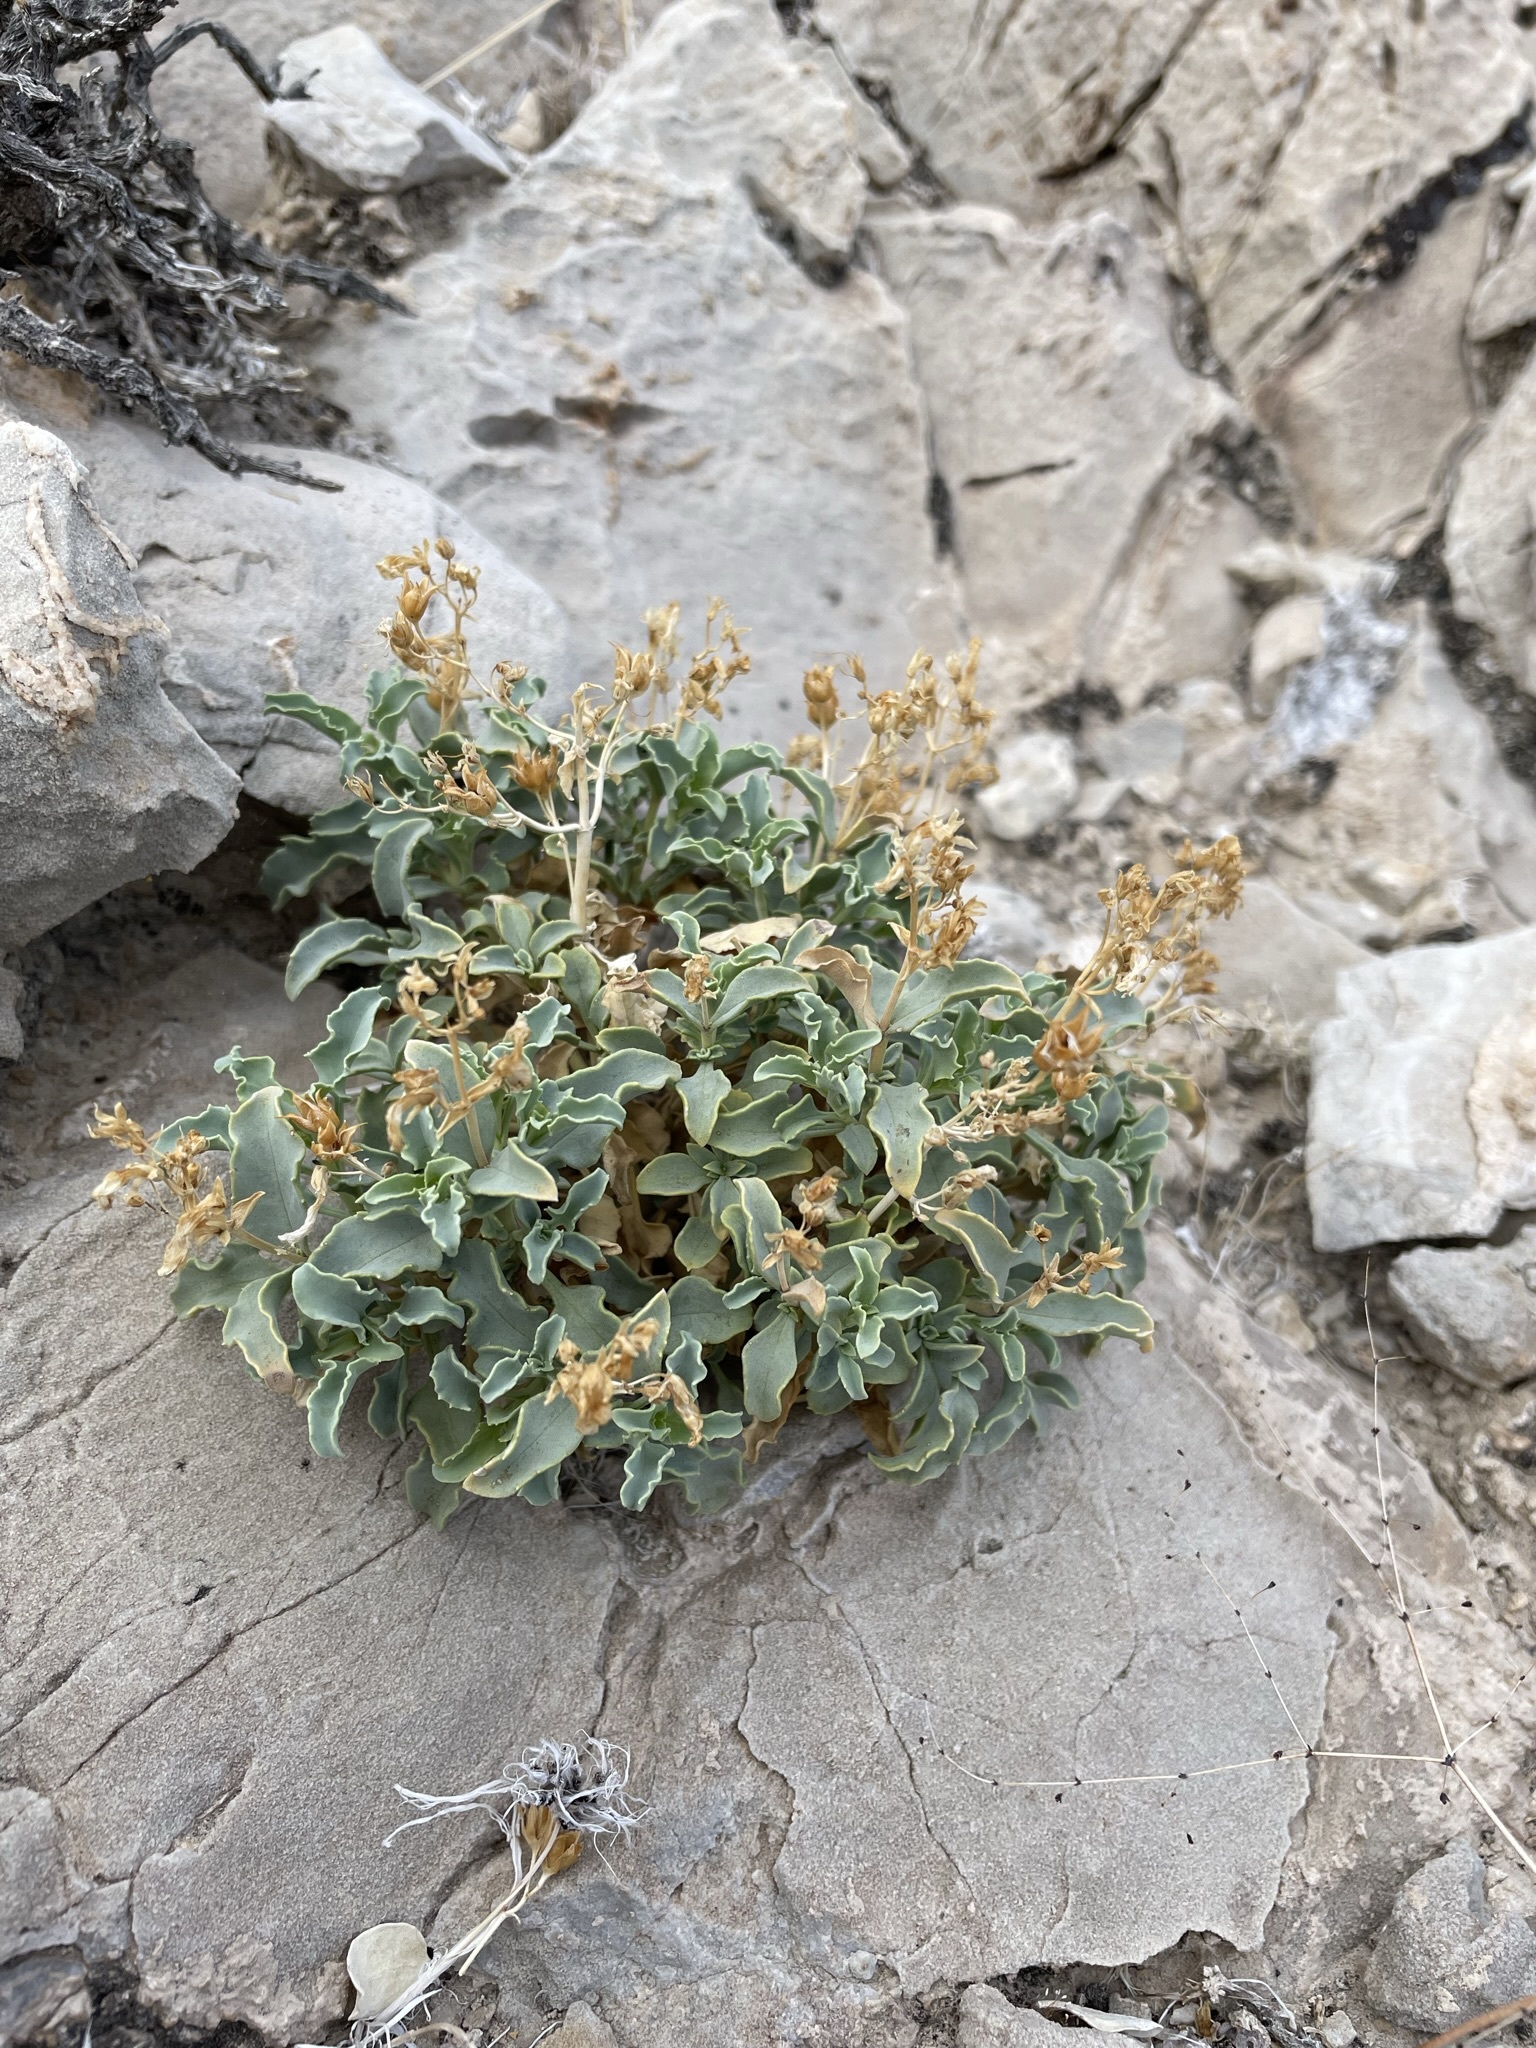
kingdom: Plantae
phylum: Tracheophyta
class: Magnoliopsida
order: Lamiales
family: Plantaginaceae
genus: Penstemon
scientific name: Penstemon petiolatus
